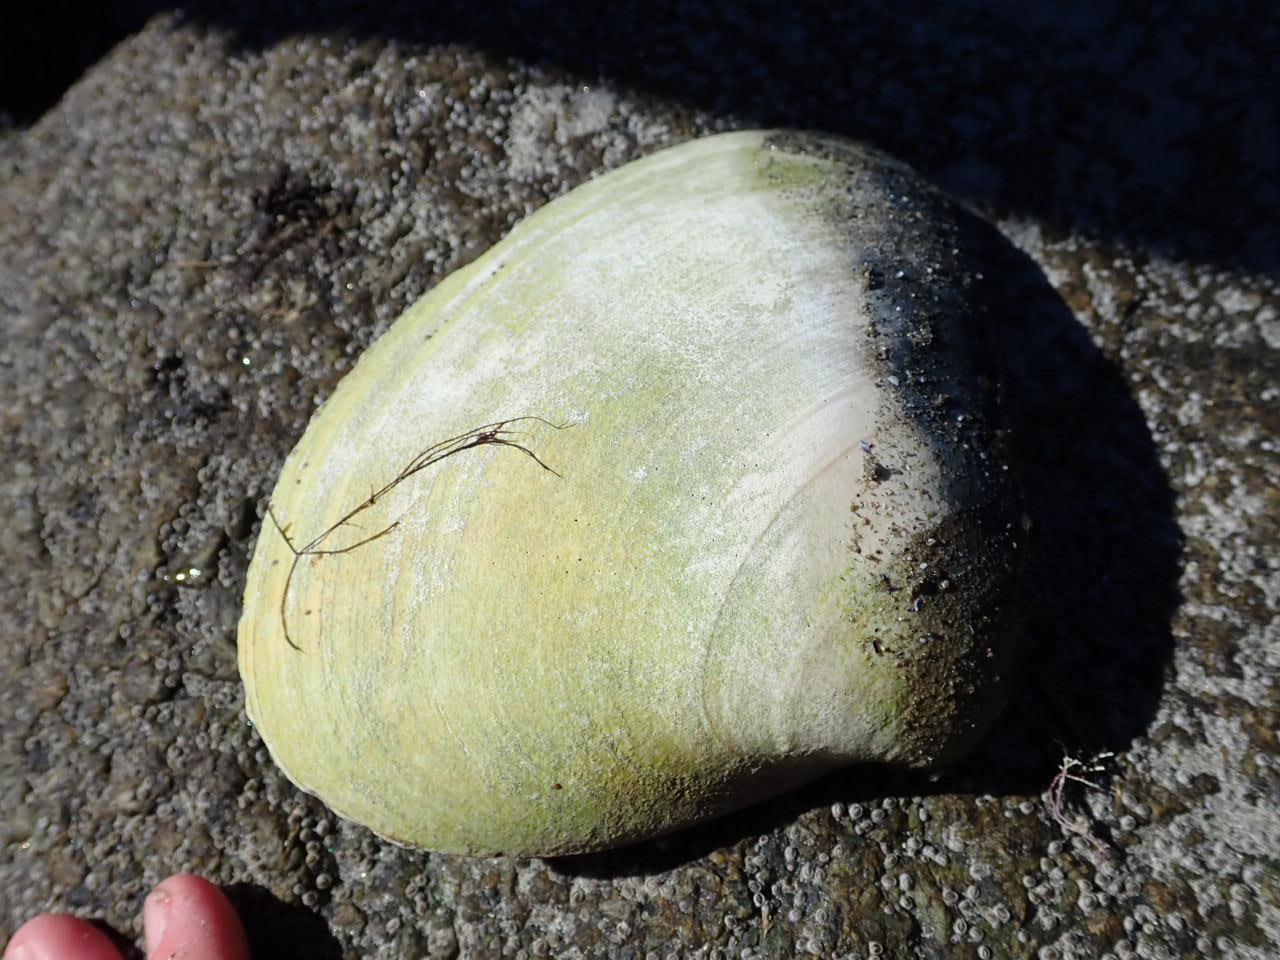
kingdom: Animalia
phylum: Mollusca
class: Bivalvia
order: Venerida
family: Mactridae
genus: Spisula
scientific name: Spisula solidissima
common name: Atlantic surf clam
